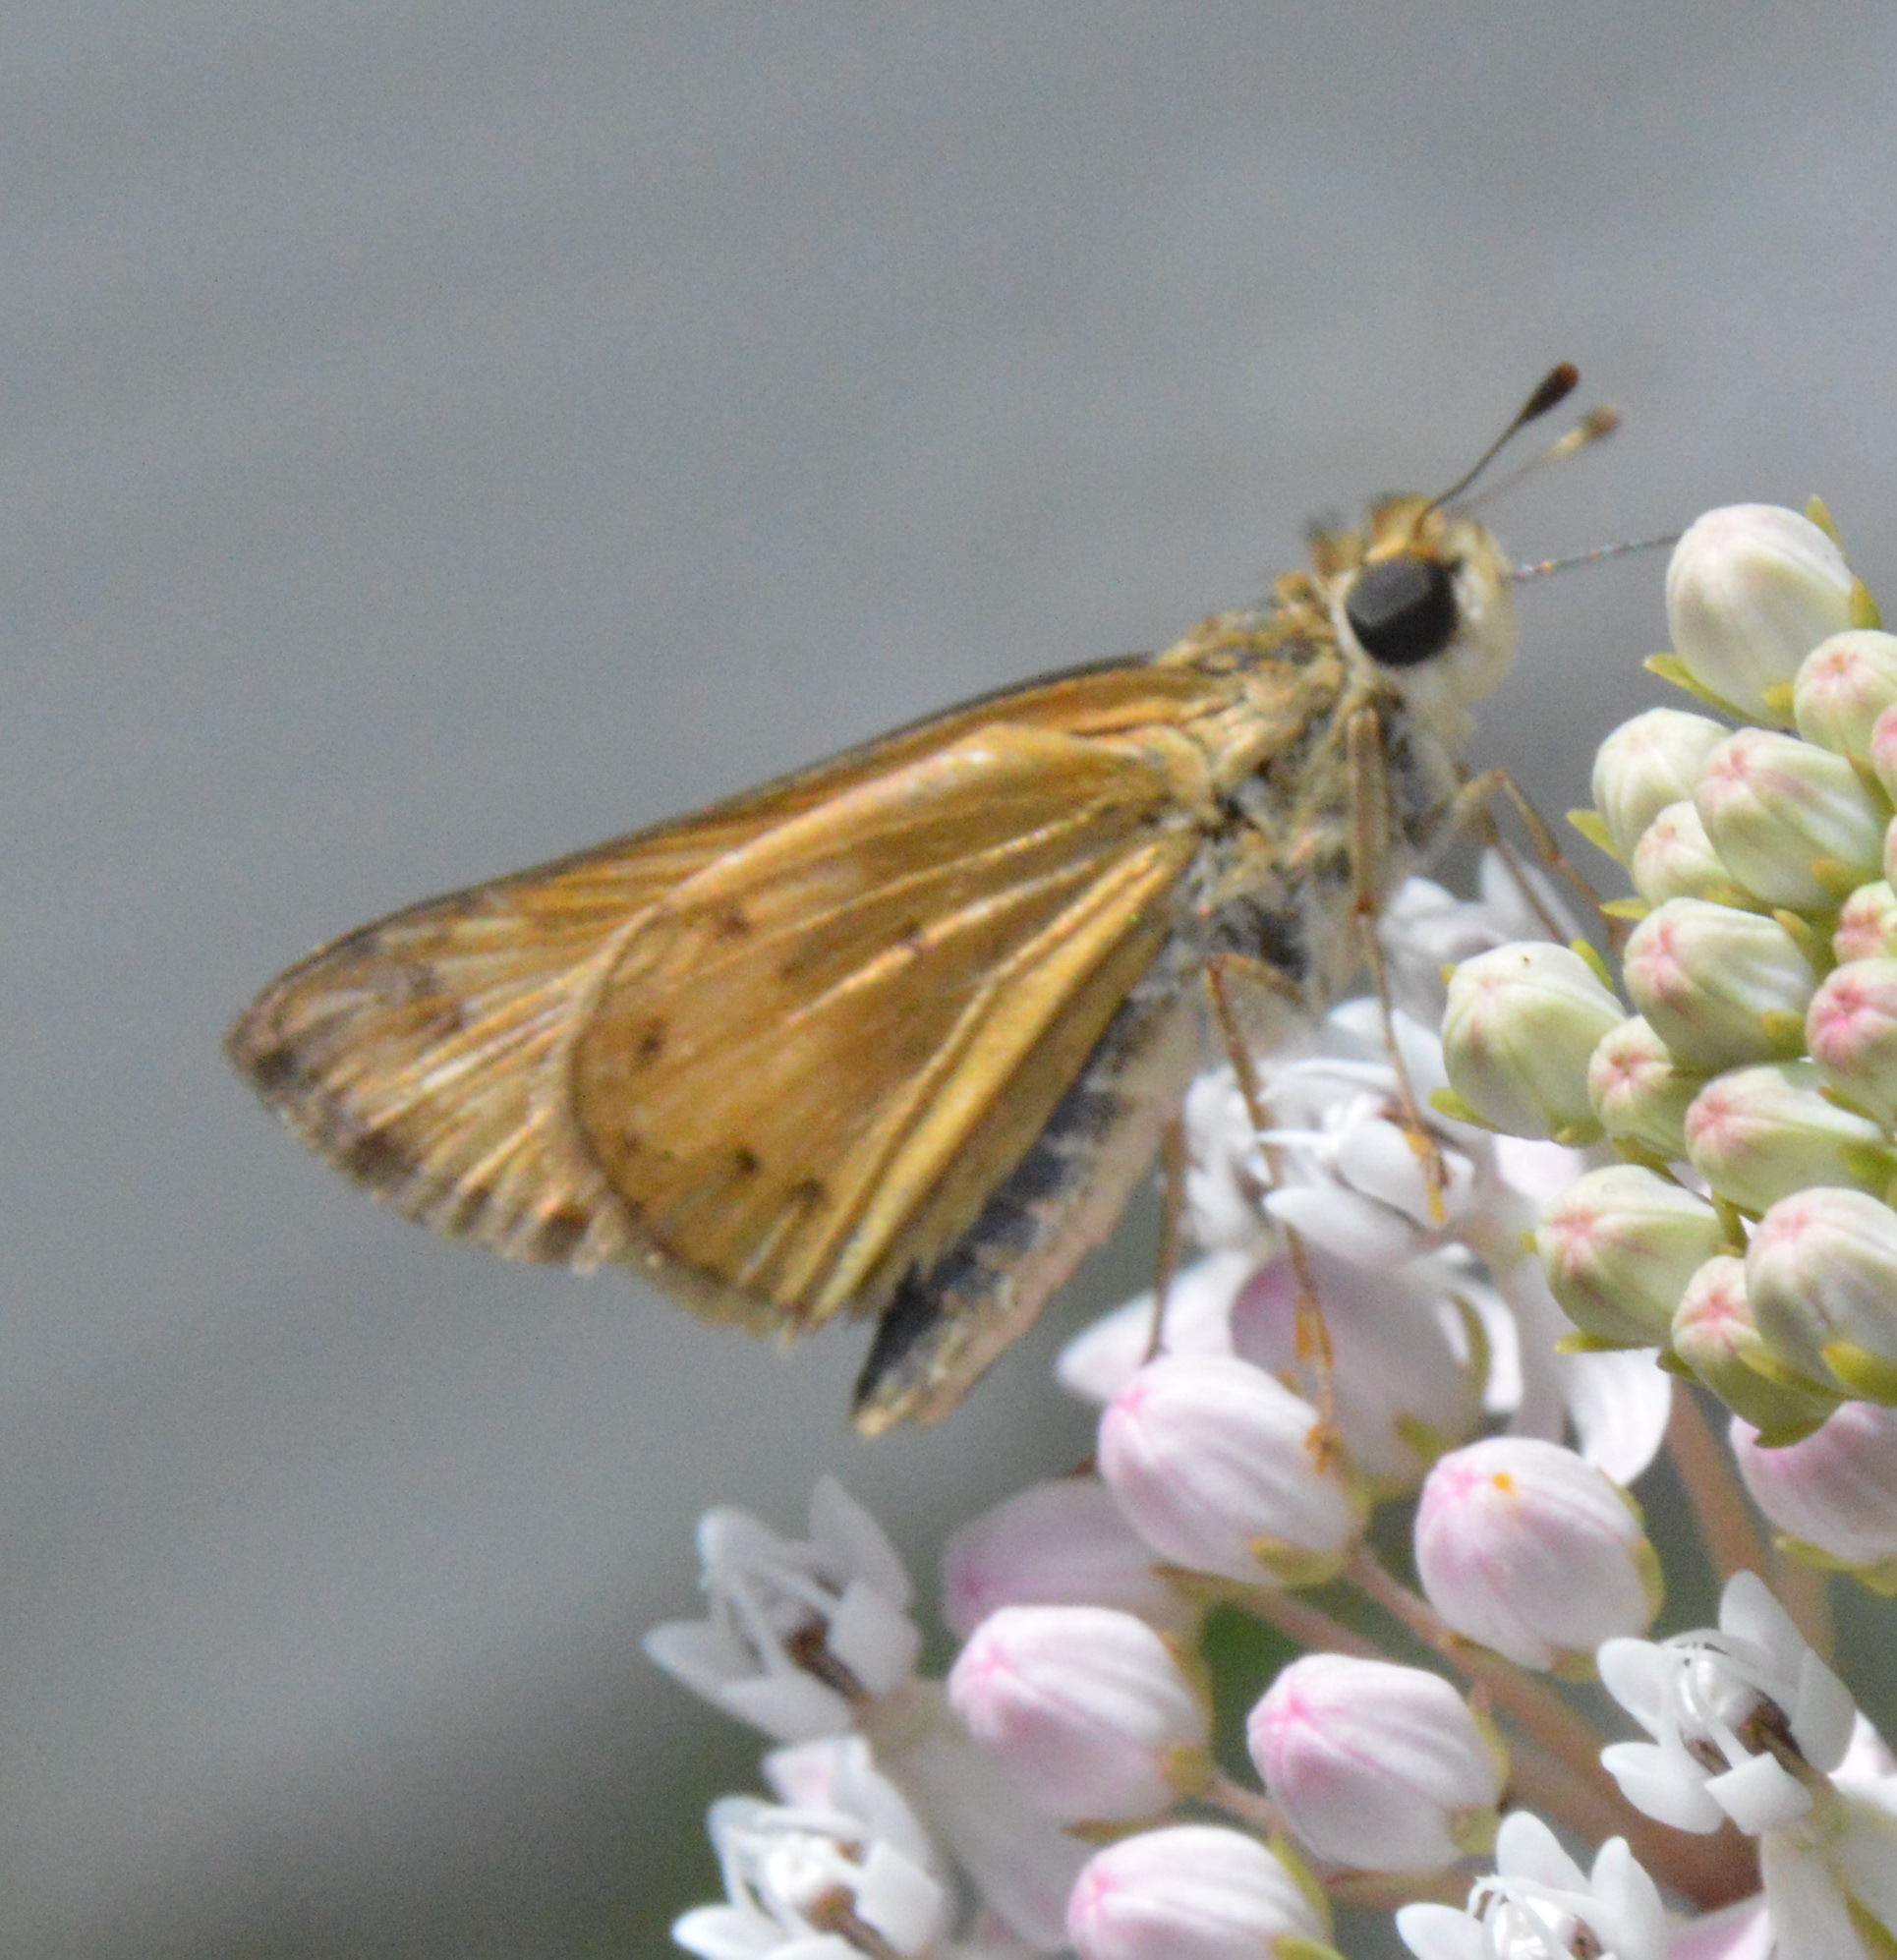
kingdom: Animalia
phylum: Arthropoda
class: Insecta
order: Lepidoptera
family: Hesperiidae
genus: Hylephila
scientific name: Hylephila phyleus
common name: Fiery skipper
